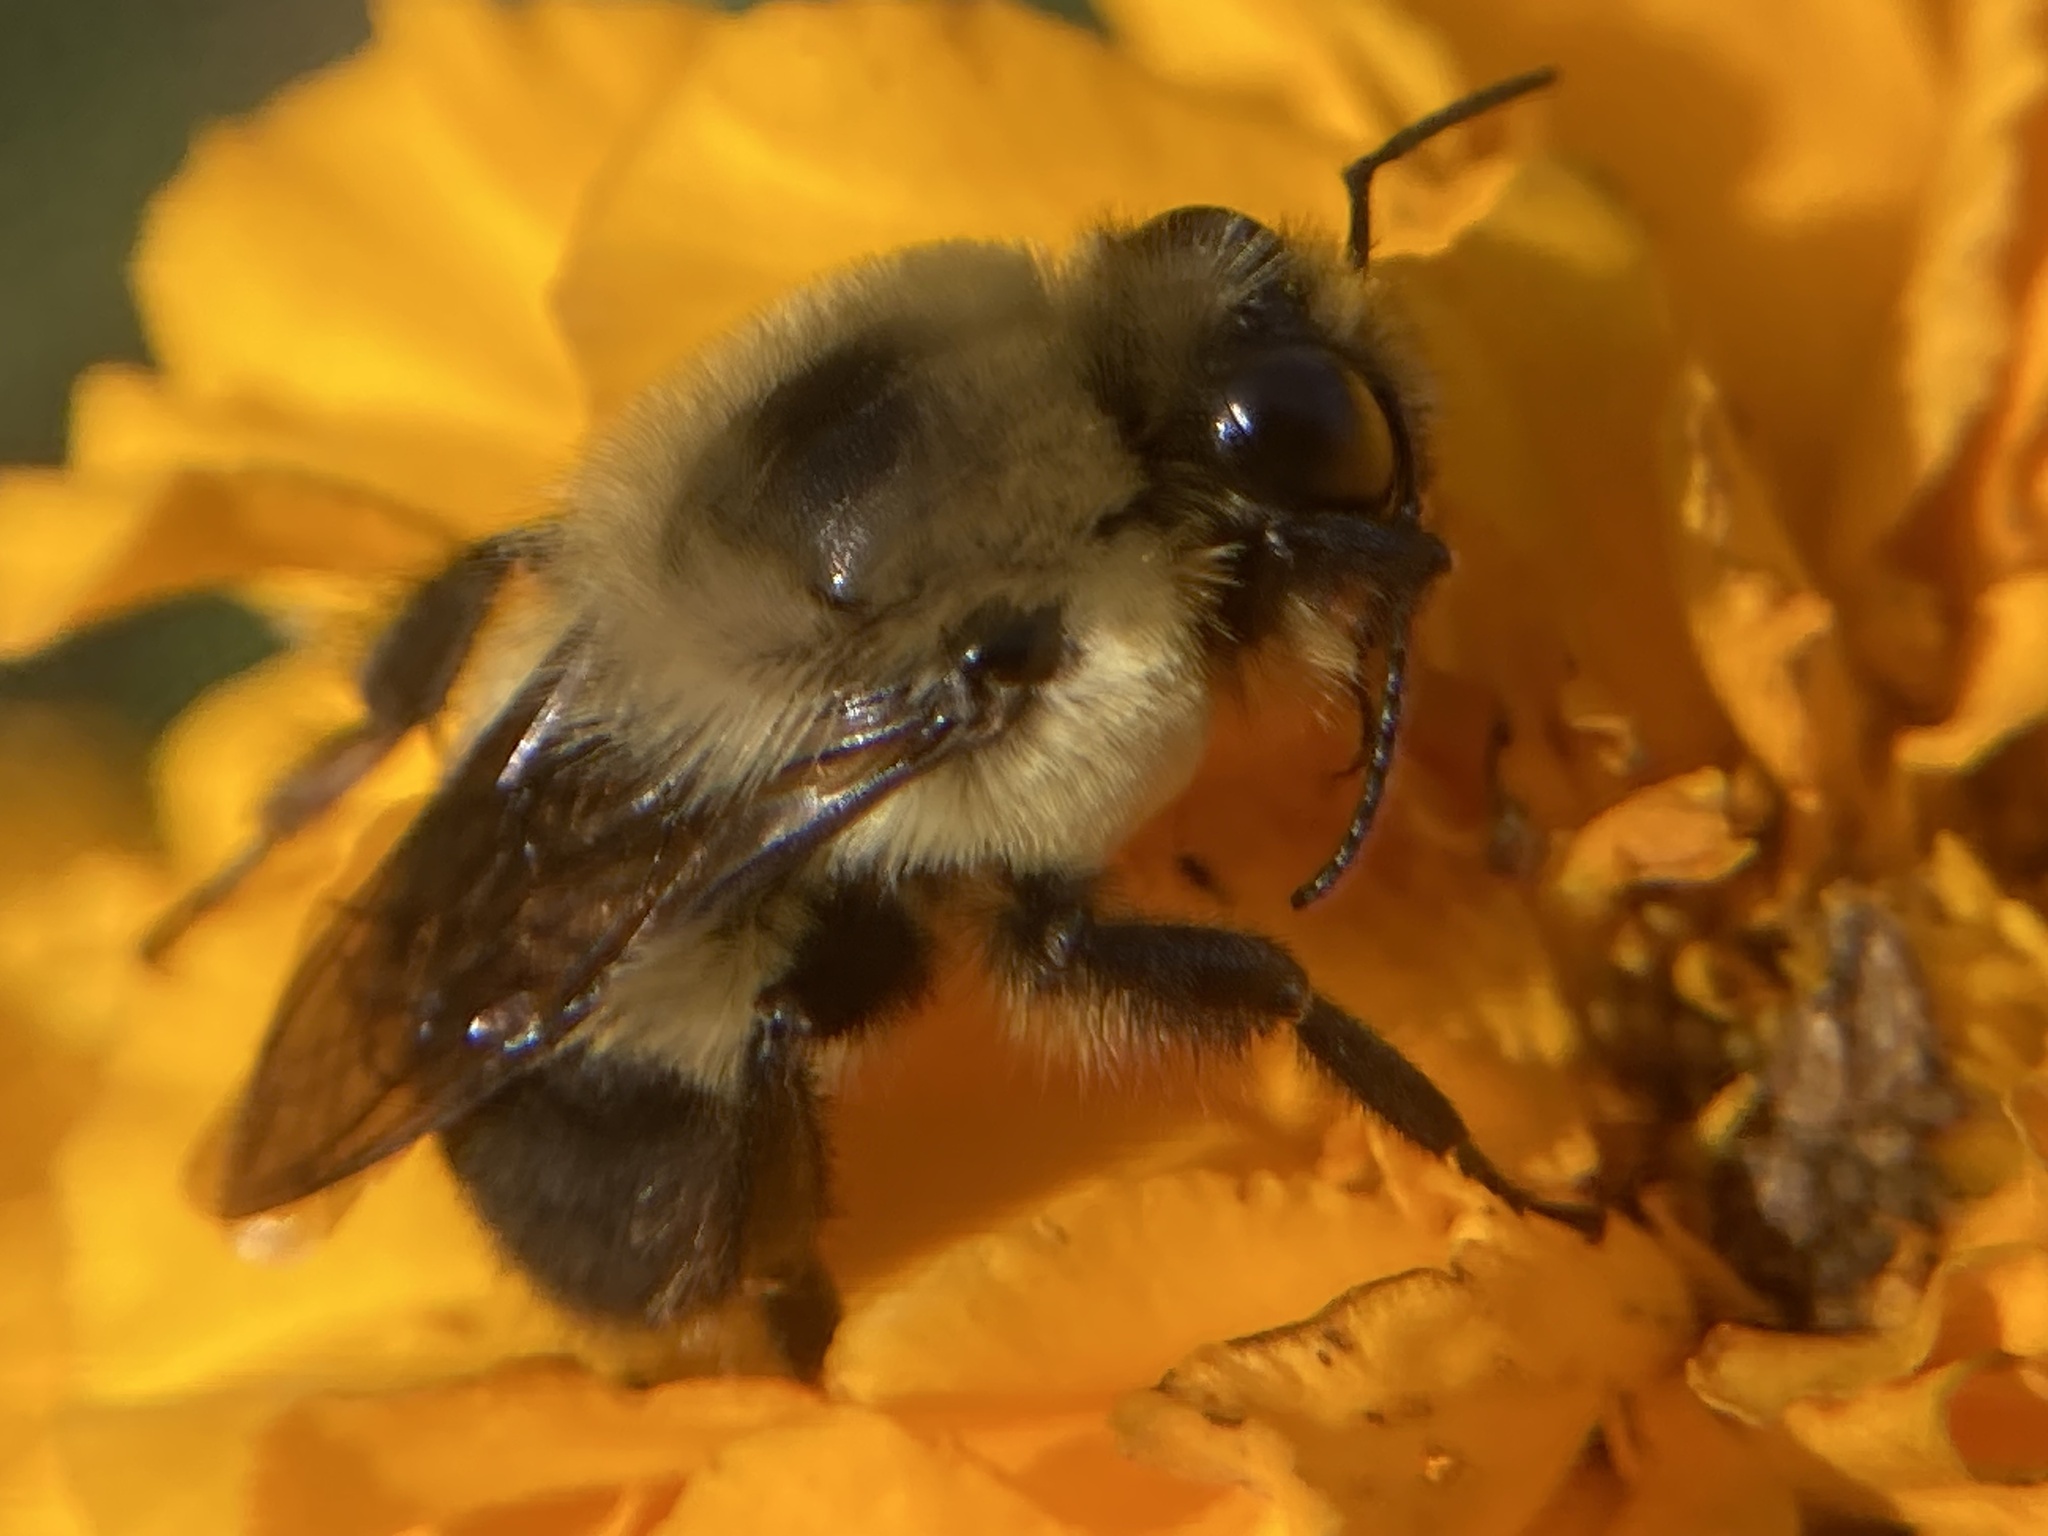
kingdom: Animalia
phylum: Arthropoda
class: Insecta
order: Hymenoptera
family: Apidae
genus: Bombus
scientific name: Bombus griseocollis
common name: Brown-belted bumble bee
